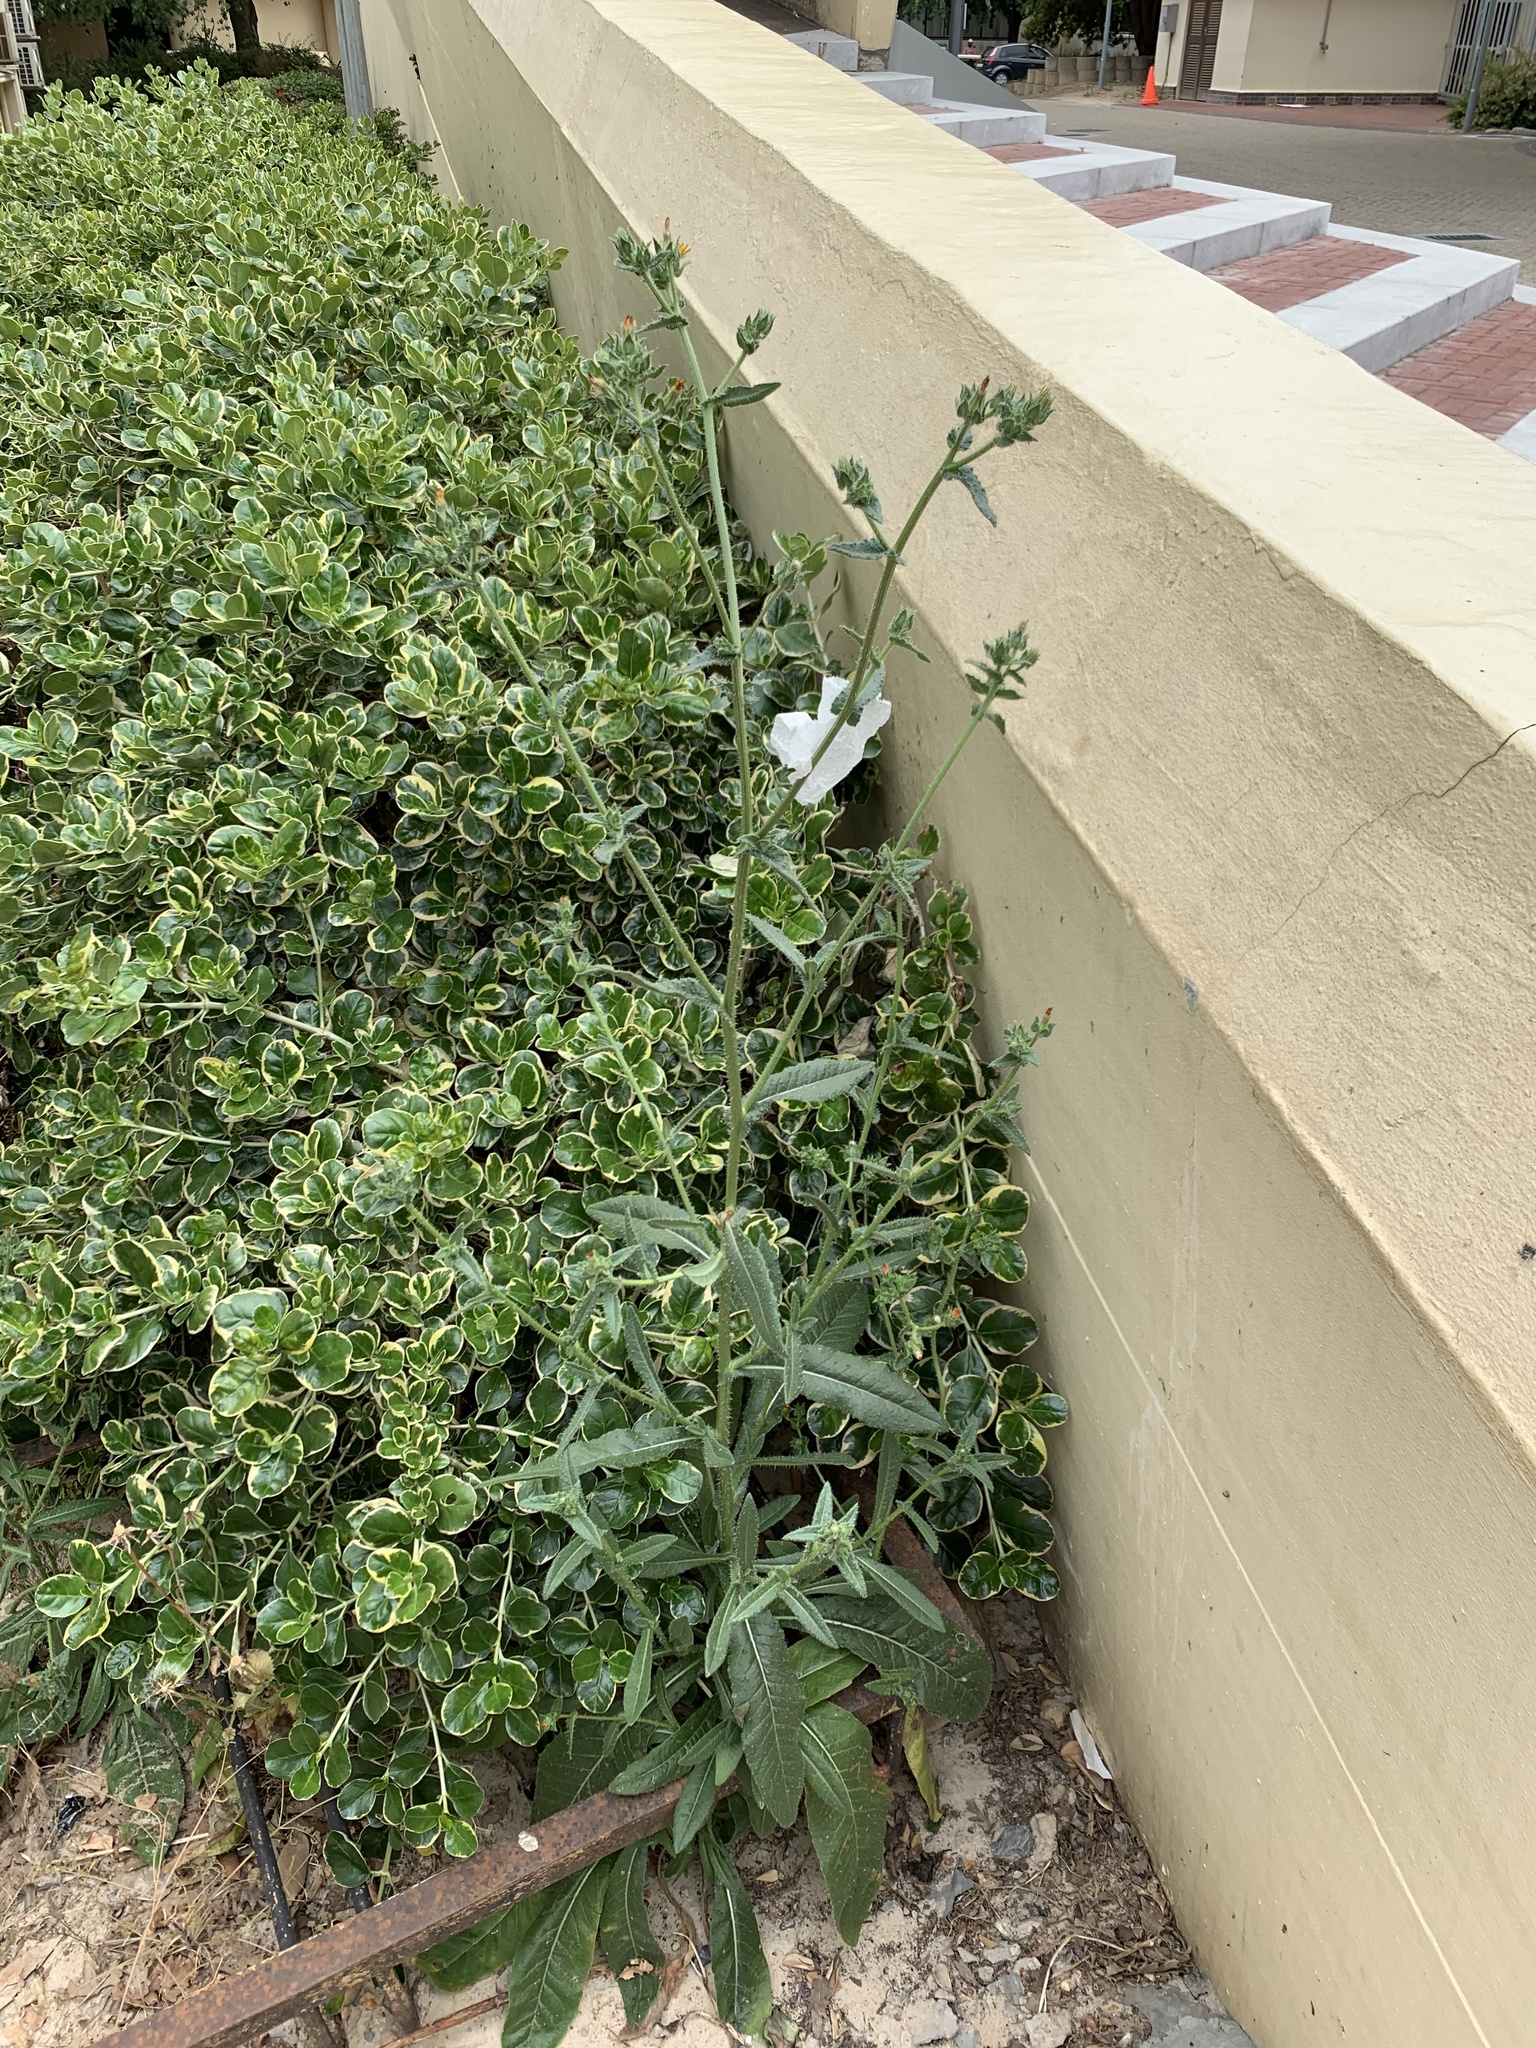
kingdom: Plantae
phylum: Tracheophyta
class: Magnoliopsida
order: Asterales
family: Asteraceae
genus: Helminthotheca
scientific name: Helminthotheca echioides
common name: Ox-tongue
